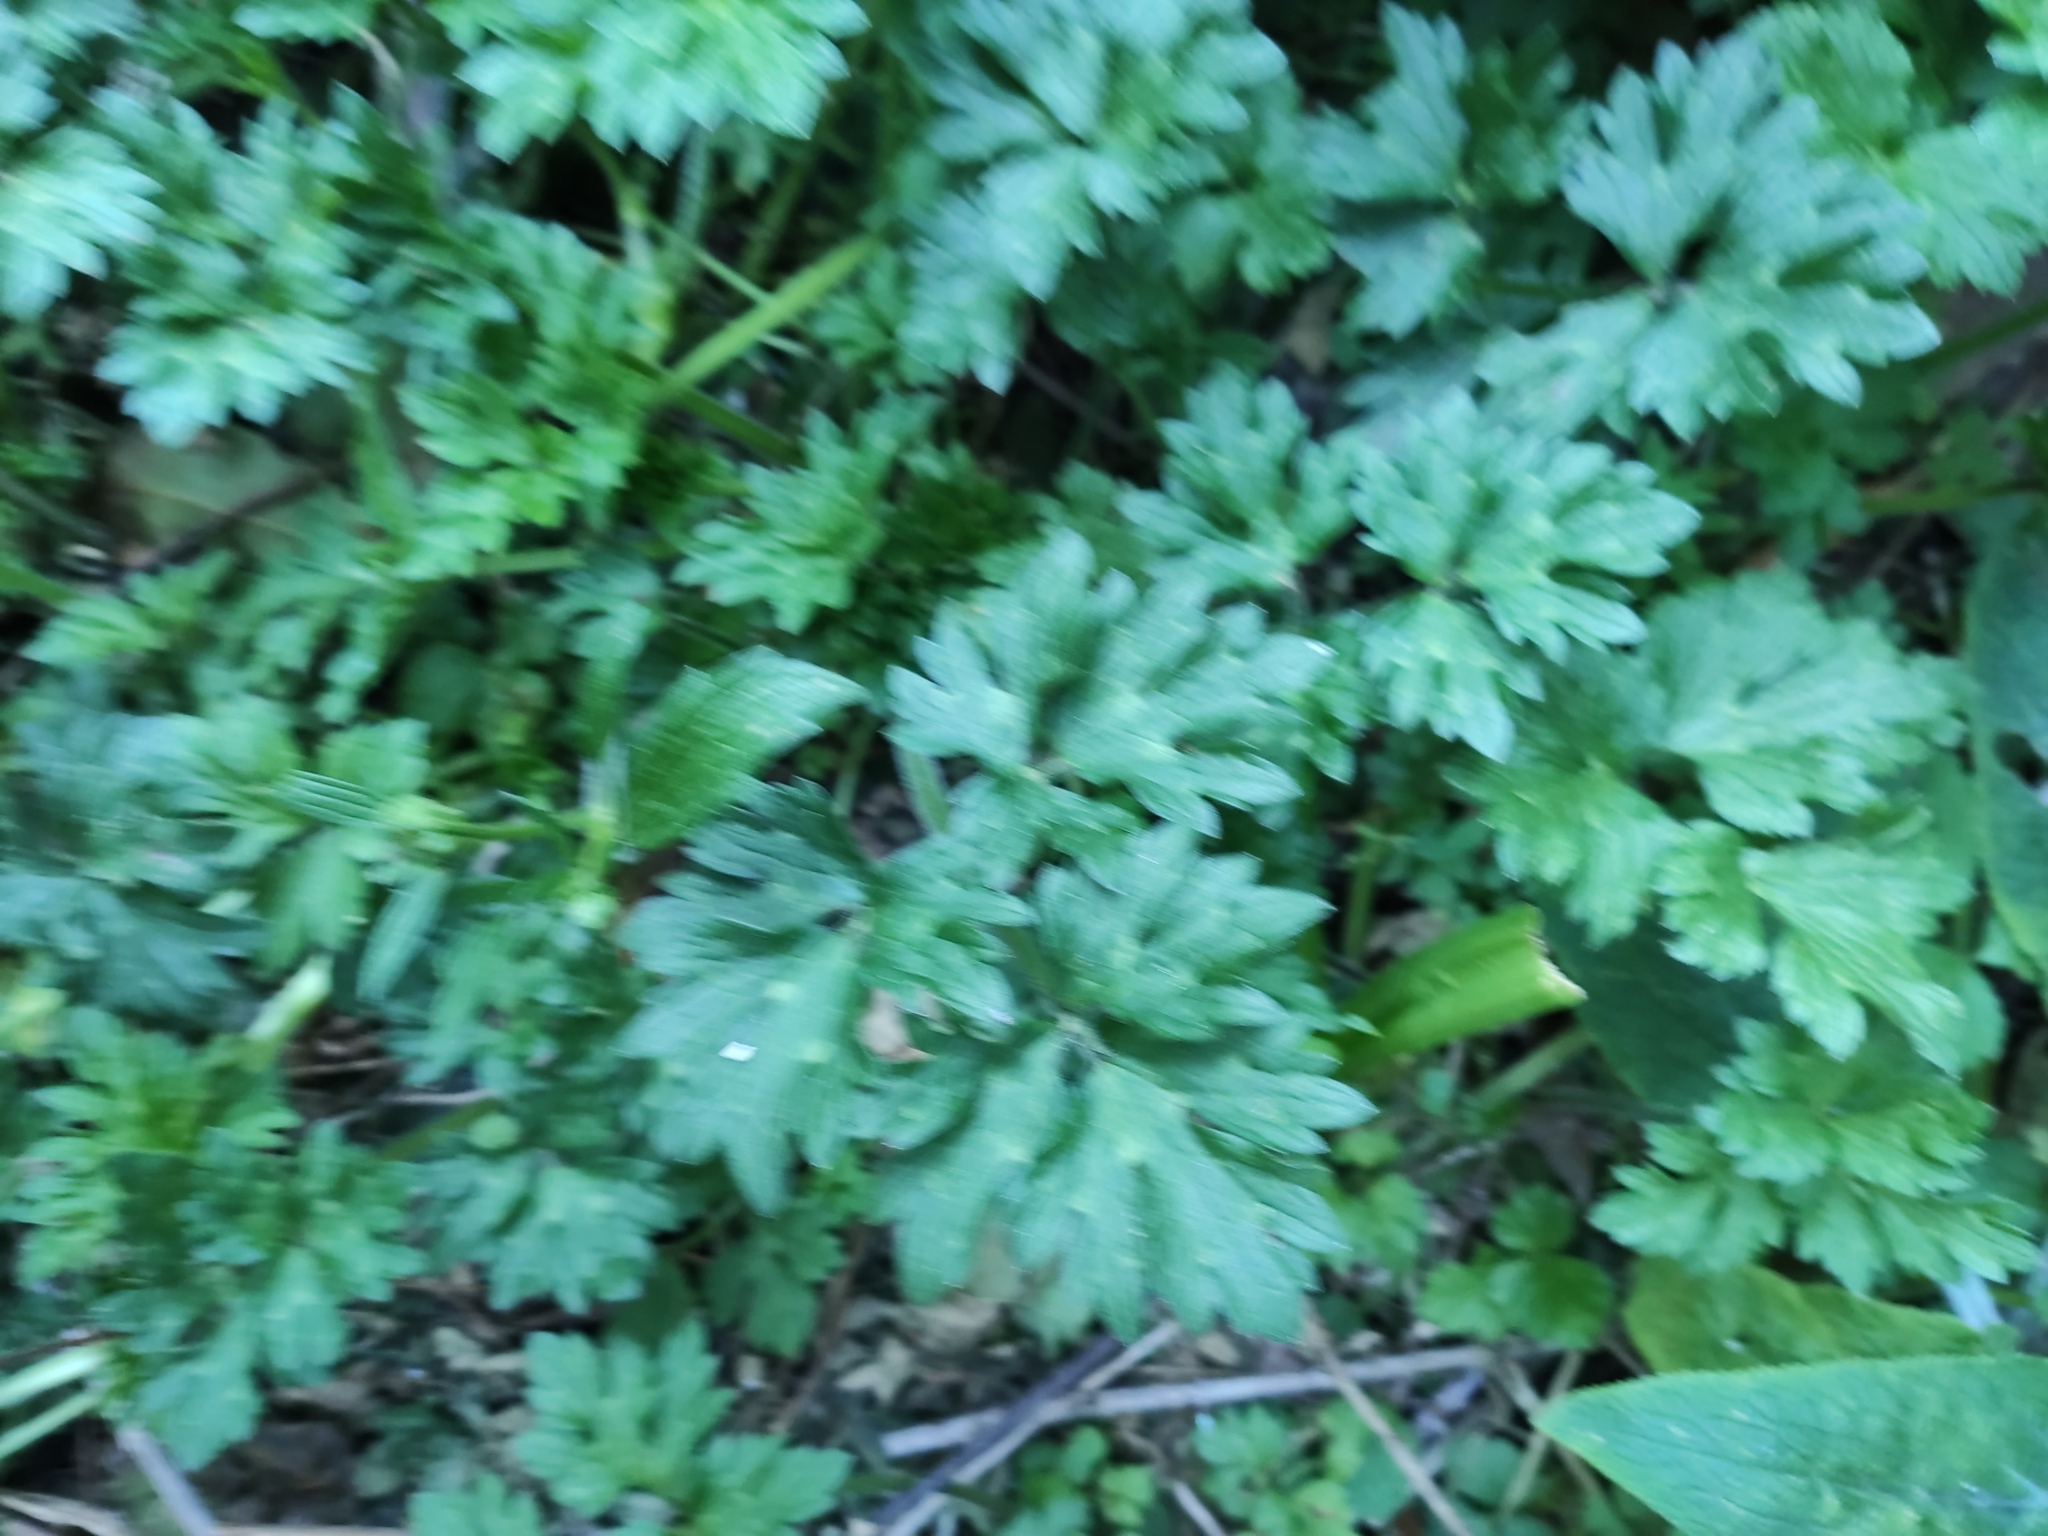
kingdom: Plantae
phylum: Tracheophyta
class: Magnoliopsida
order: Ranunculales
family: Ranunculaceae
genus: Ranunculus
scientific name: Ranunculus repens
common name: Creeping buttercup
